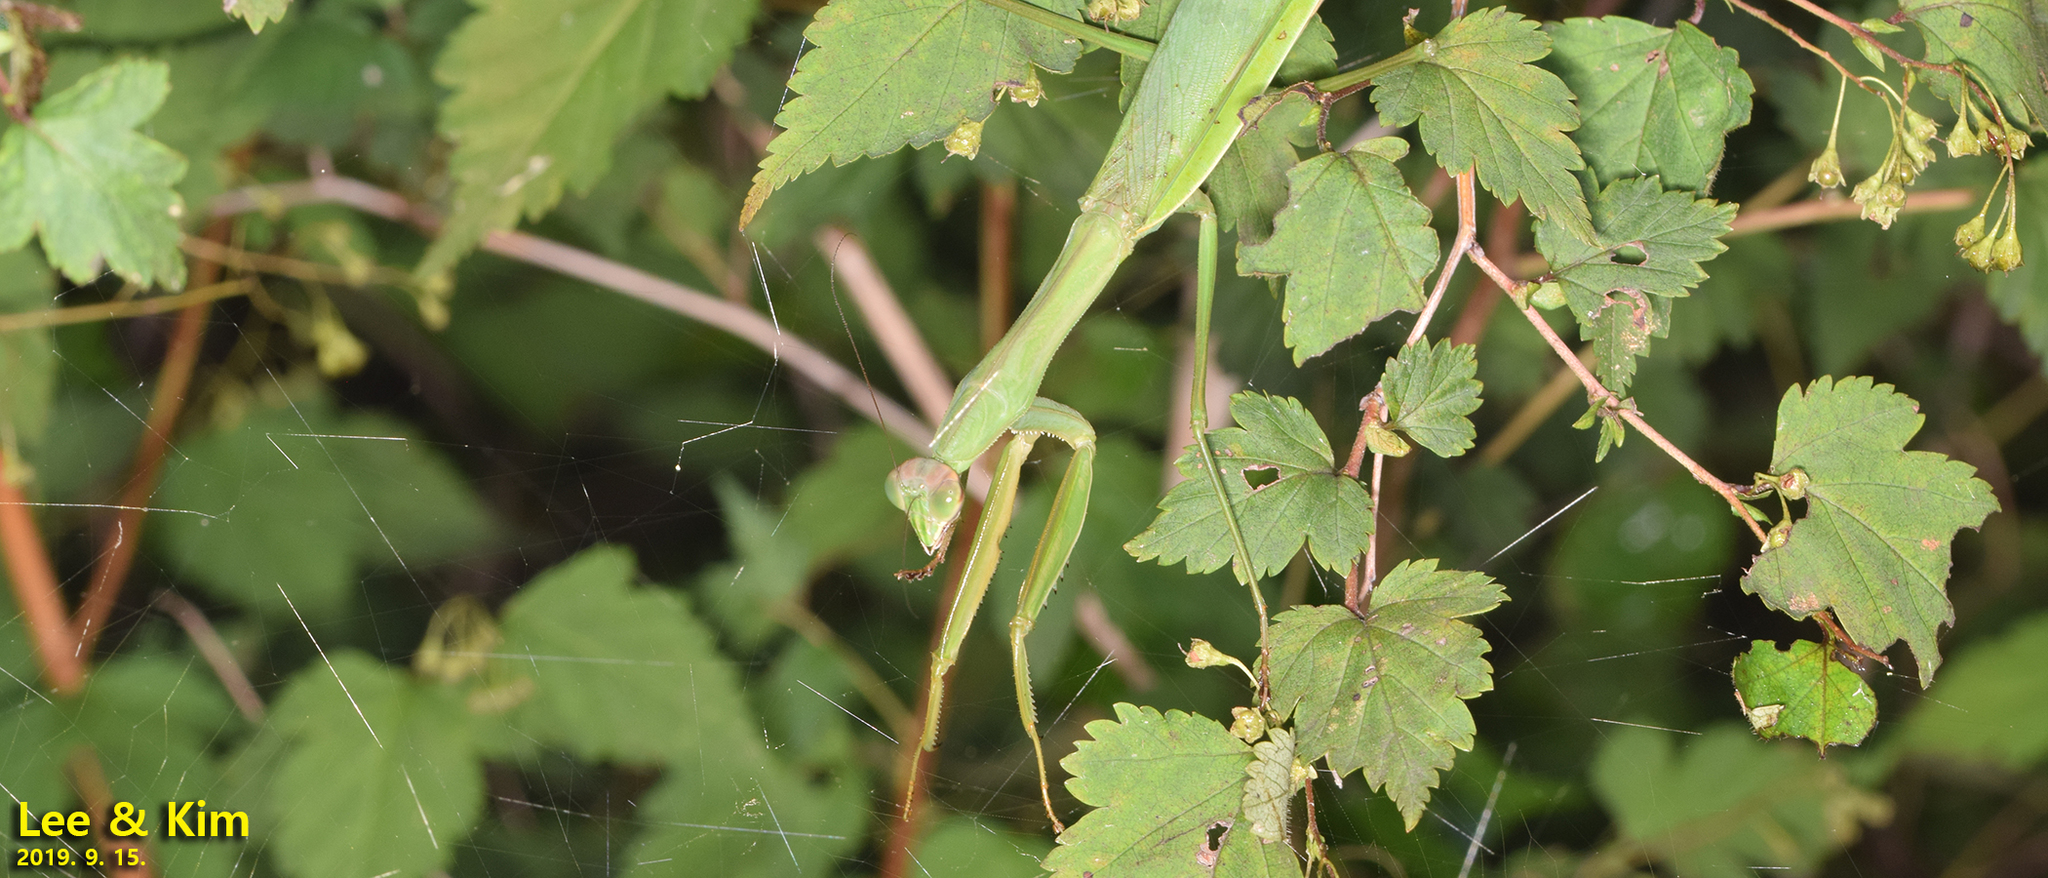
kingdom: Animalia
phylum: Arthropoda
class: Insecta
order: Mantodea
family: Mantidae
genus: Tenodera
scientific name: Tenodera sinensis
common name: Chinese mantis
